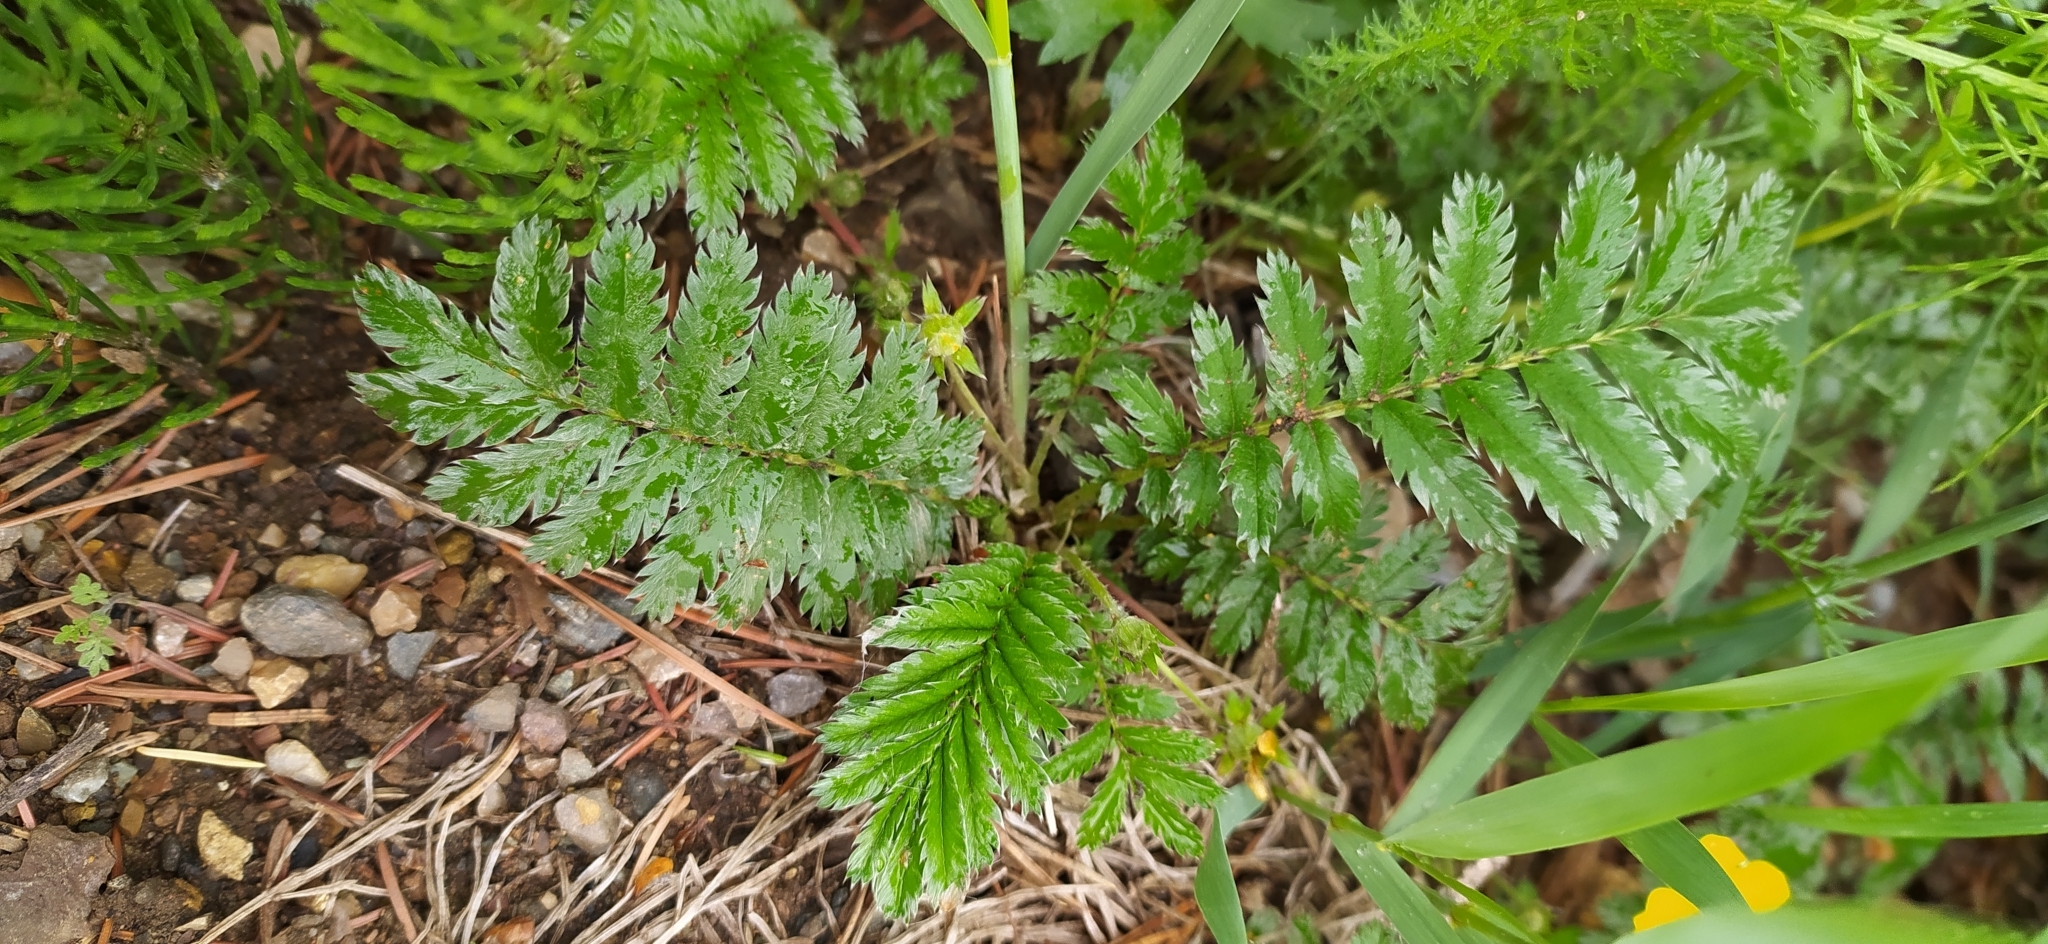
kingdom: Plantae
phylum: Tracheophyta
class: Magnoliopsida
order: Rosales
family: Rosaceae
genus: Argentina
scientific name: Argentina anserina
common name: Common silverweed
